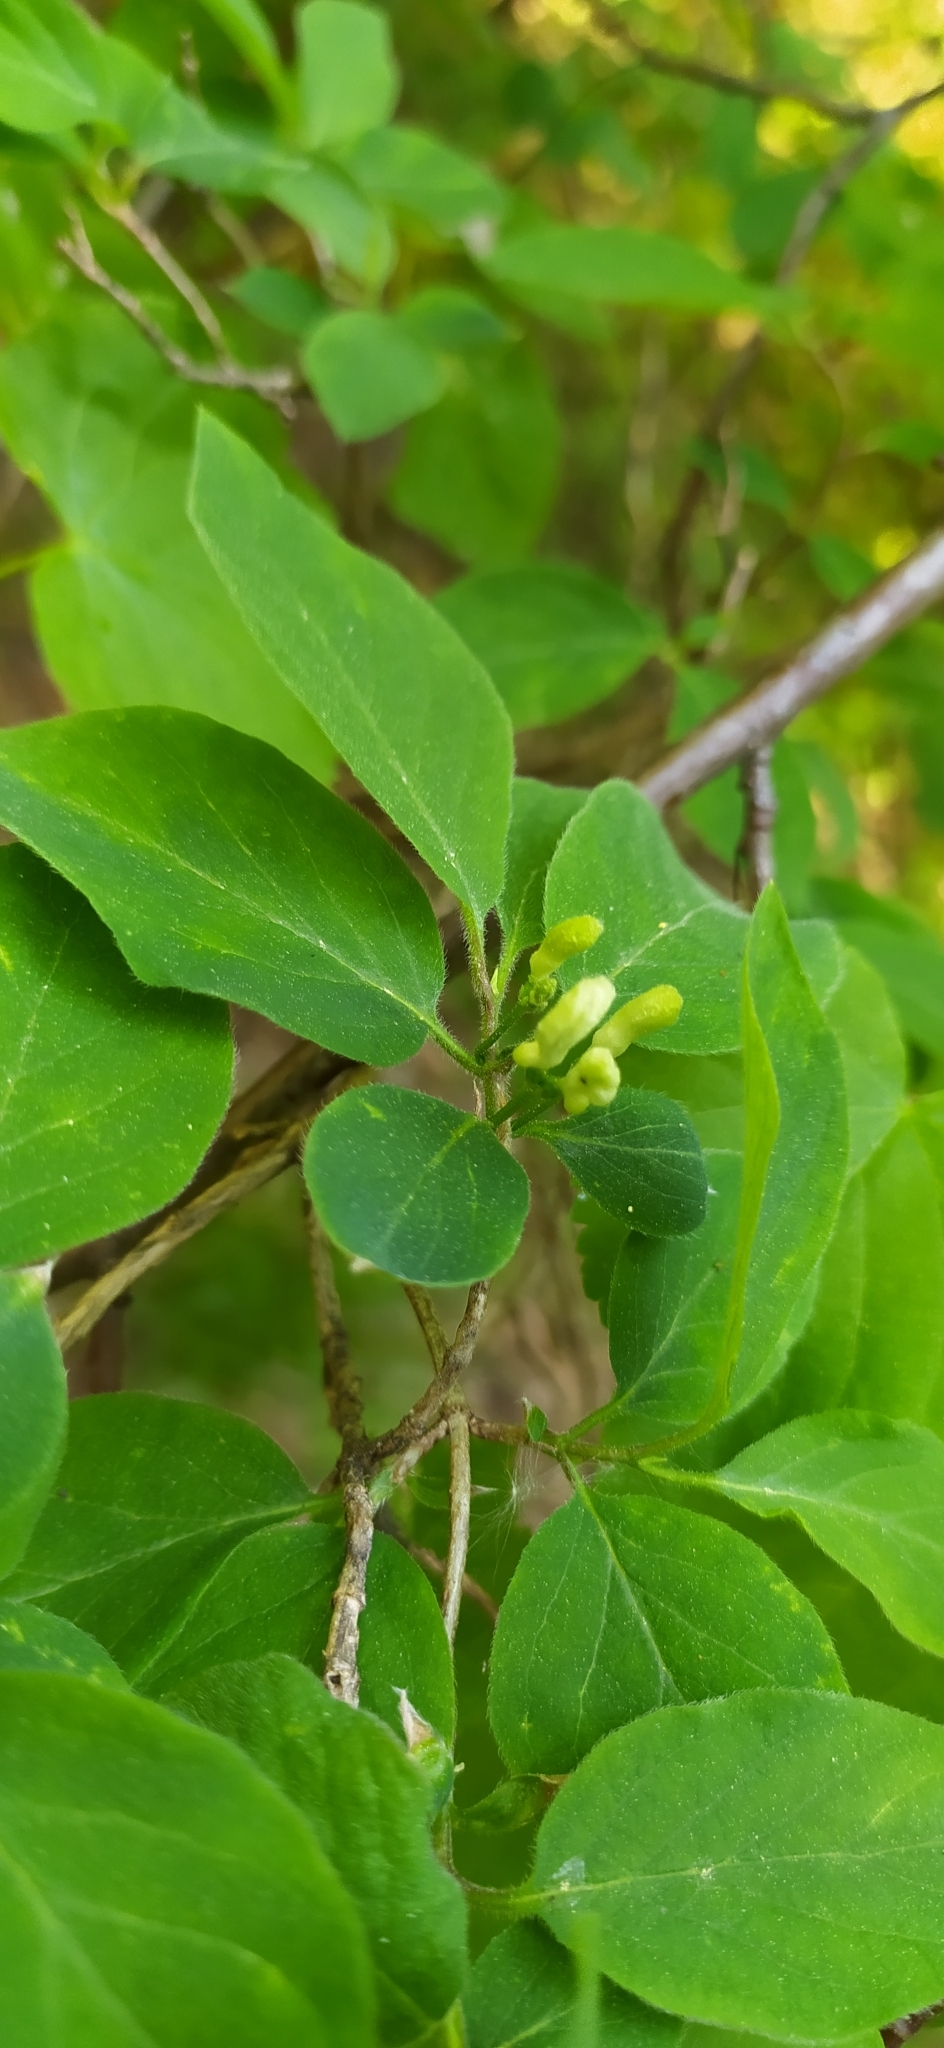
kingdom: Plantae
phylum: Tracheophyta
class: Magnoliopsida
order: Dipsacales
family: Caprifoliaceae
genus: Lonicera
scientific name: Lonicera xylosteum
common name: Fly honeysuckle
